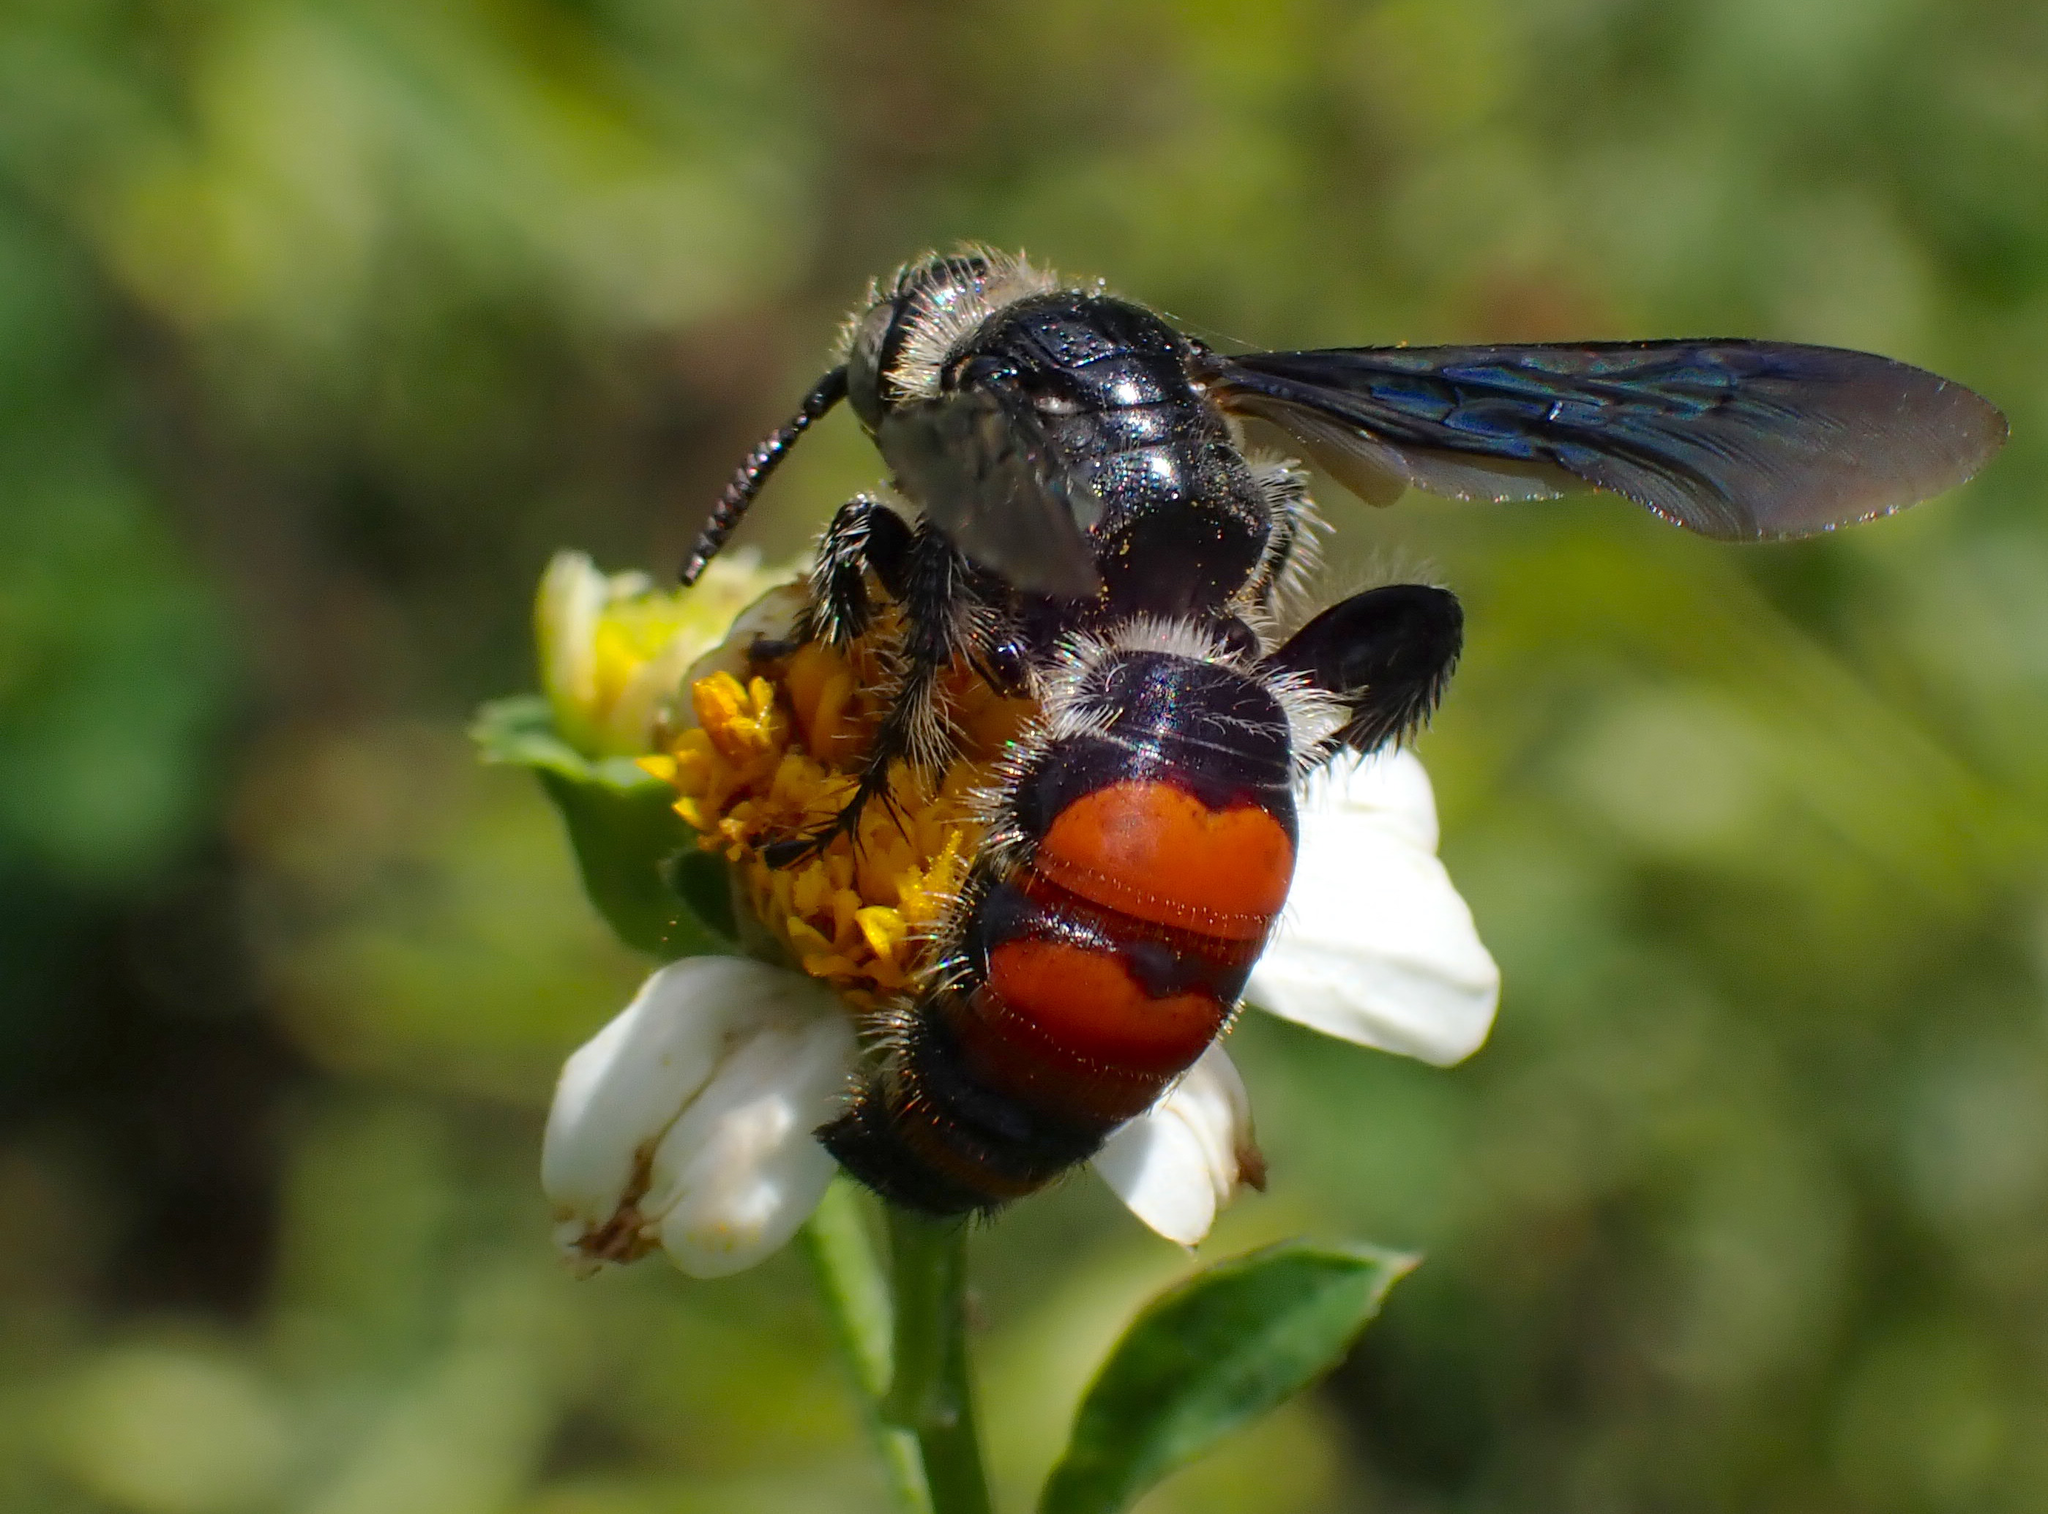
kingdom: Animalia
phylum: Arthropoda
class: Insecta
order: Hymenoptera
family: Scoliidae
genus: Dielis
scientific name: Dielis dorsata
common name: Scoliid wasp
